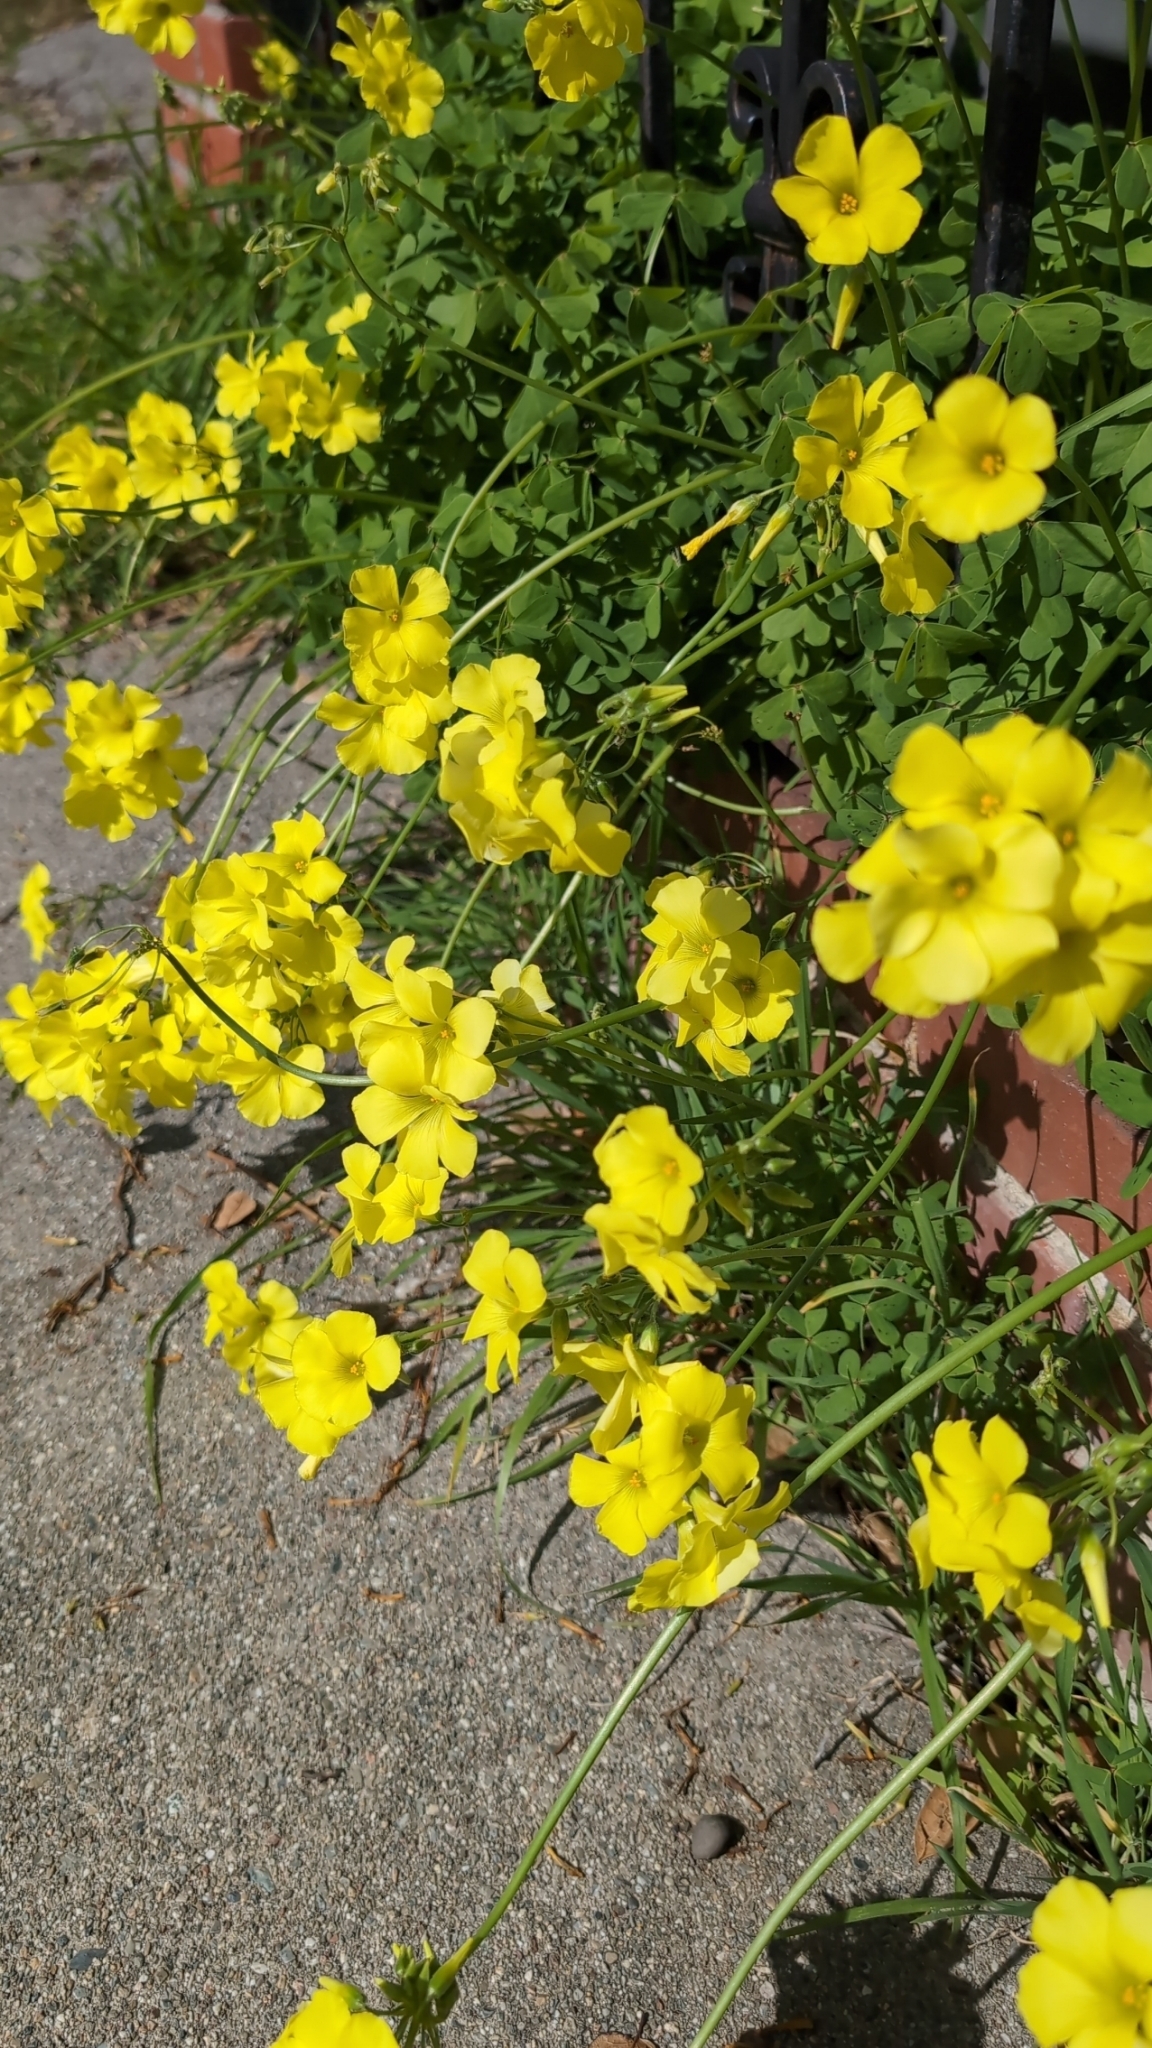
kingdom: Plantae
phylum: Tracheophyta
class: Magnoliopsida
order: Oxalidales
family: Oxalidaceae
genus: Oxalis
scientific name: Oxalis pes-caprae
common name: Bermuda-buttercup
